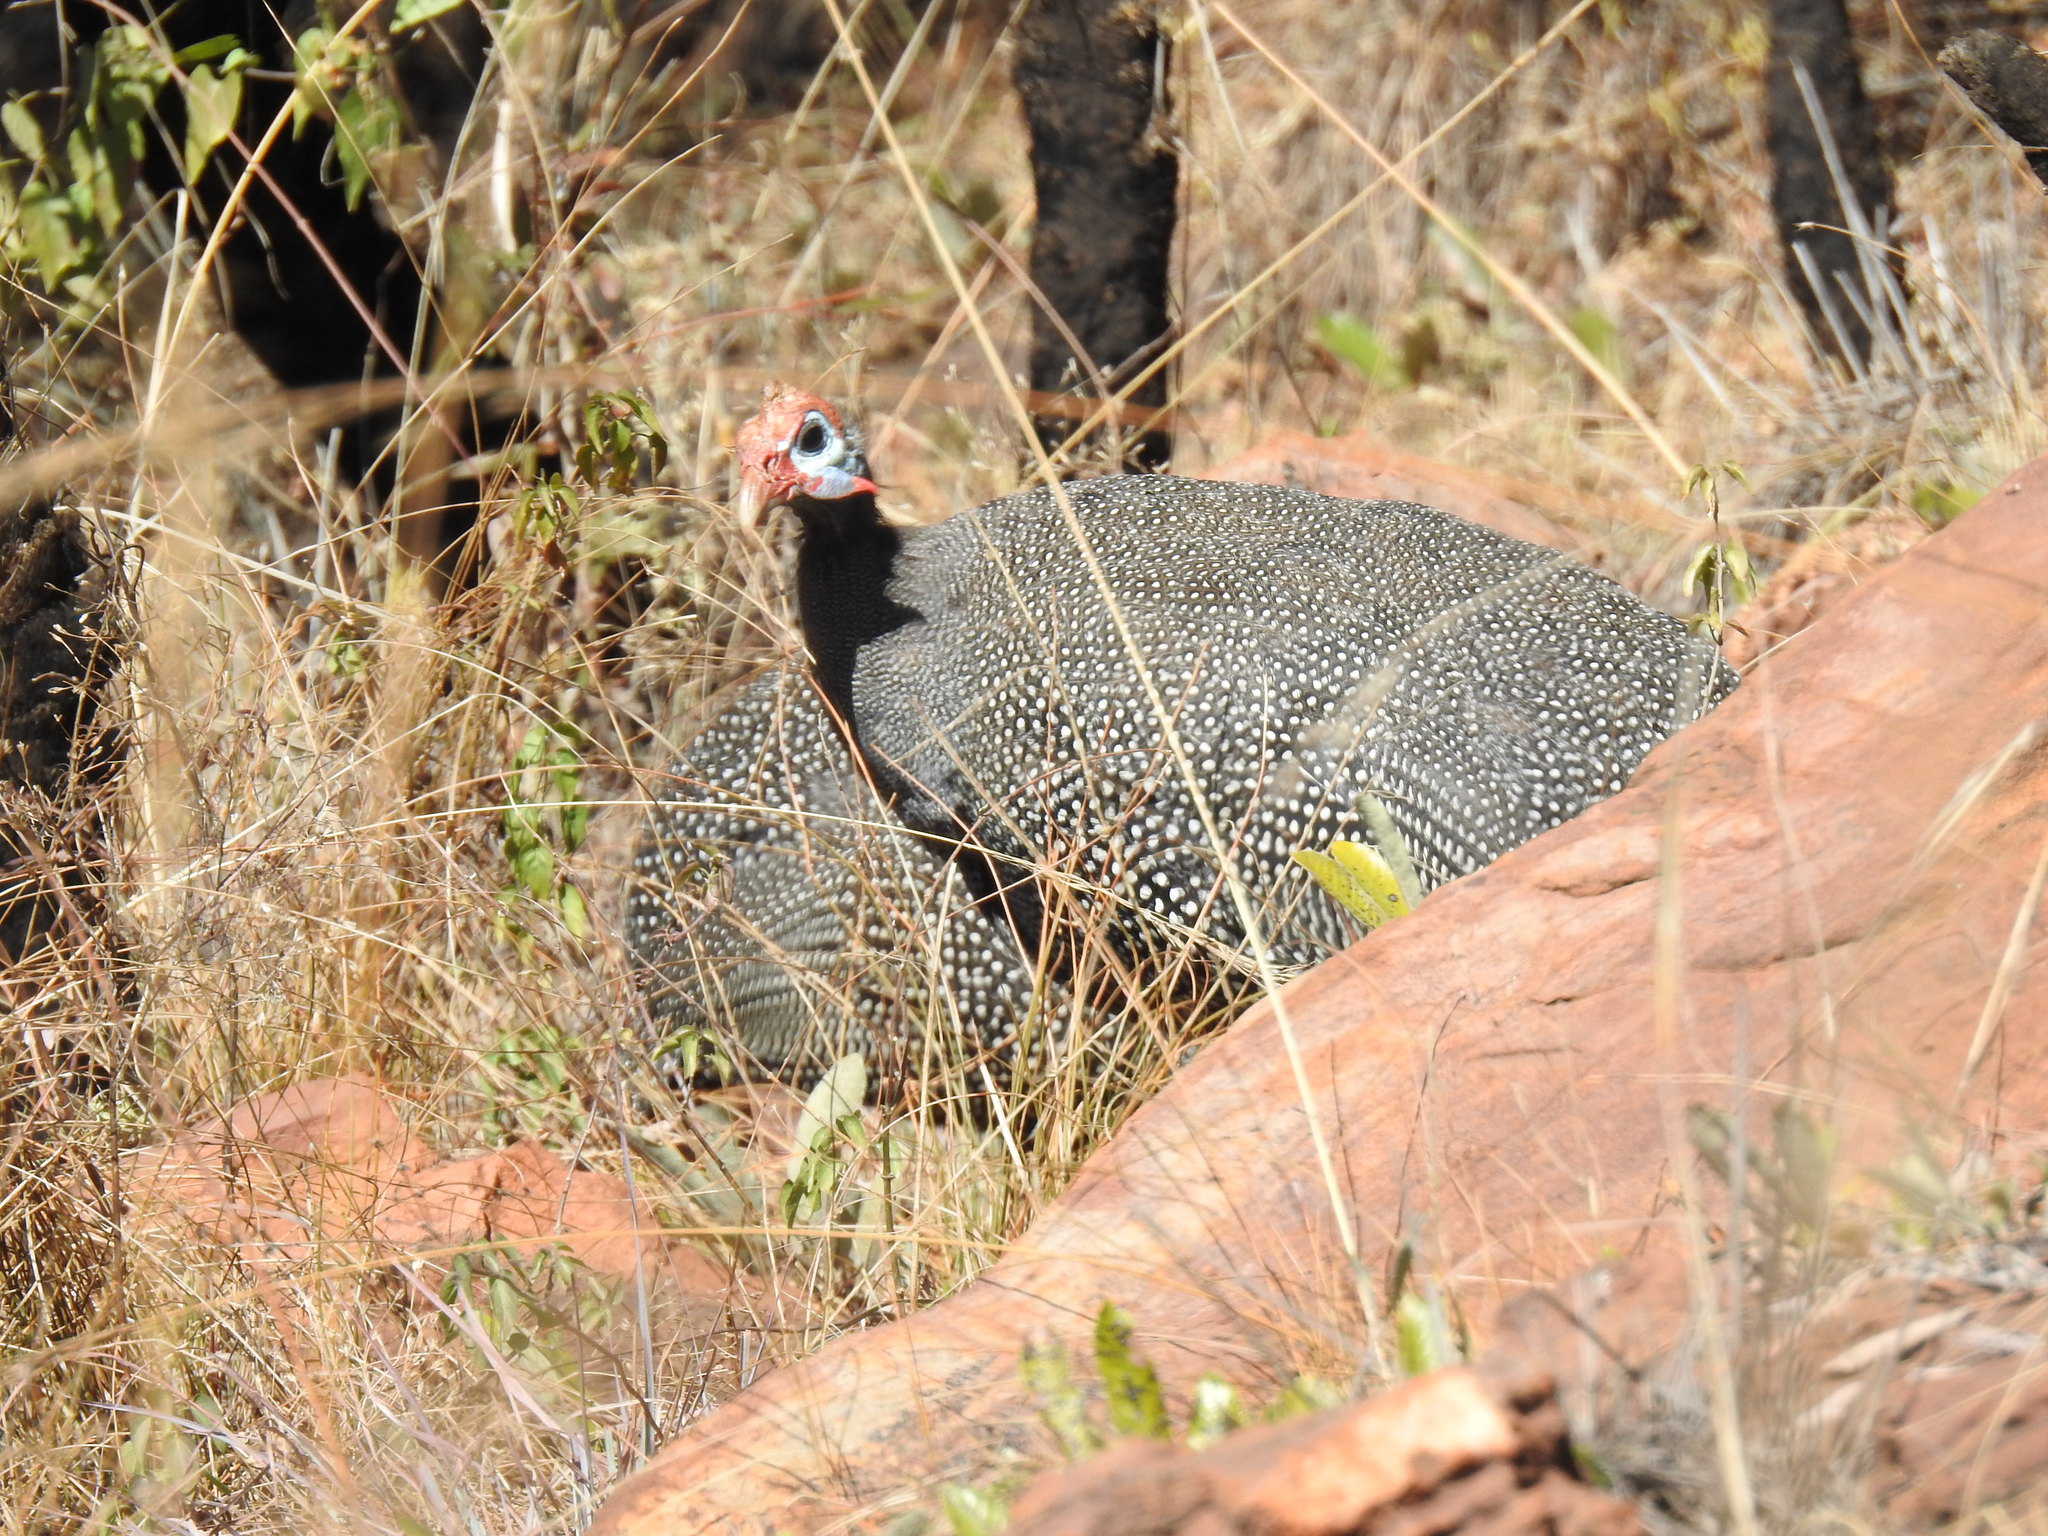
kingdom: Animalia
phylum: Chordata
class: Aves
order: Galliformes
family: Numididae
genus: Numida
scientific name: Numida meleagris
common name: Helmeted guineafowl
